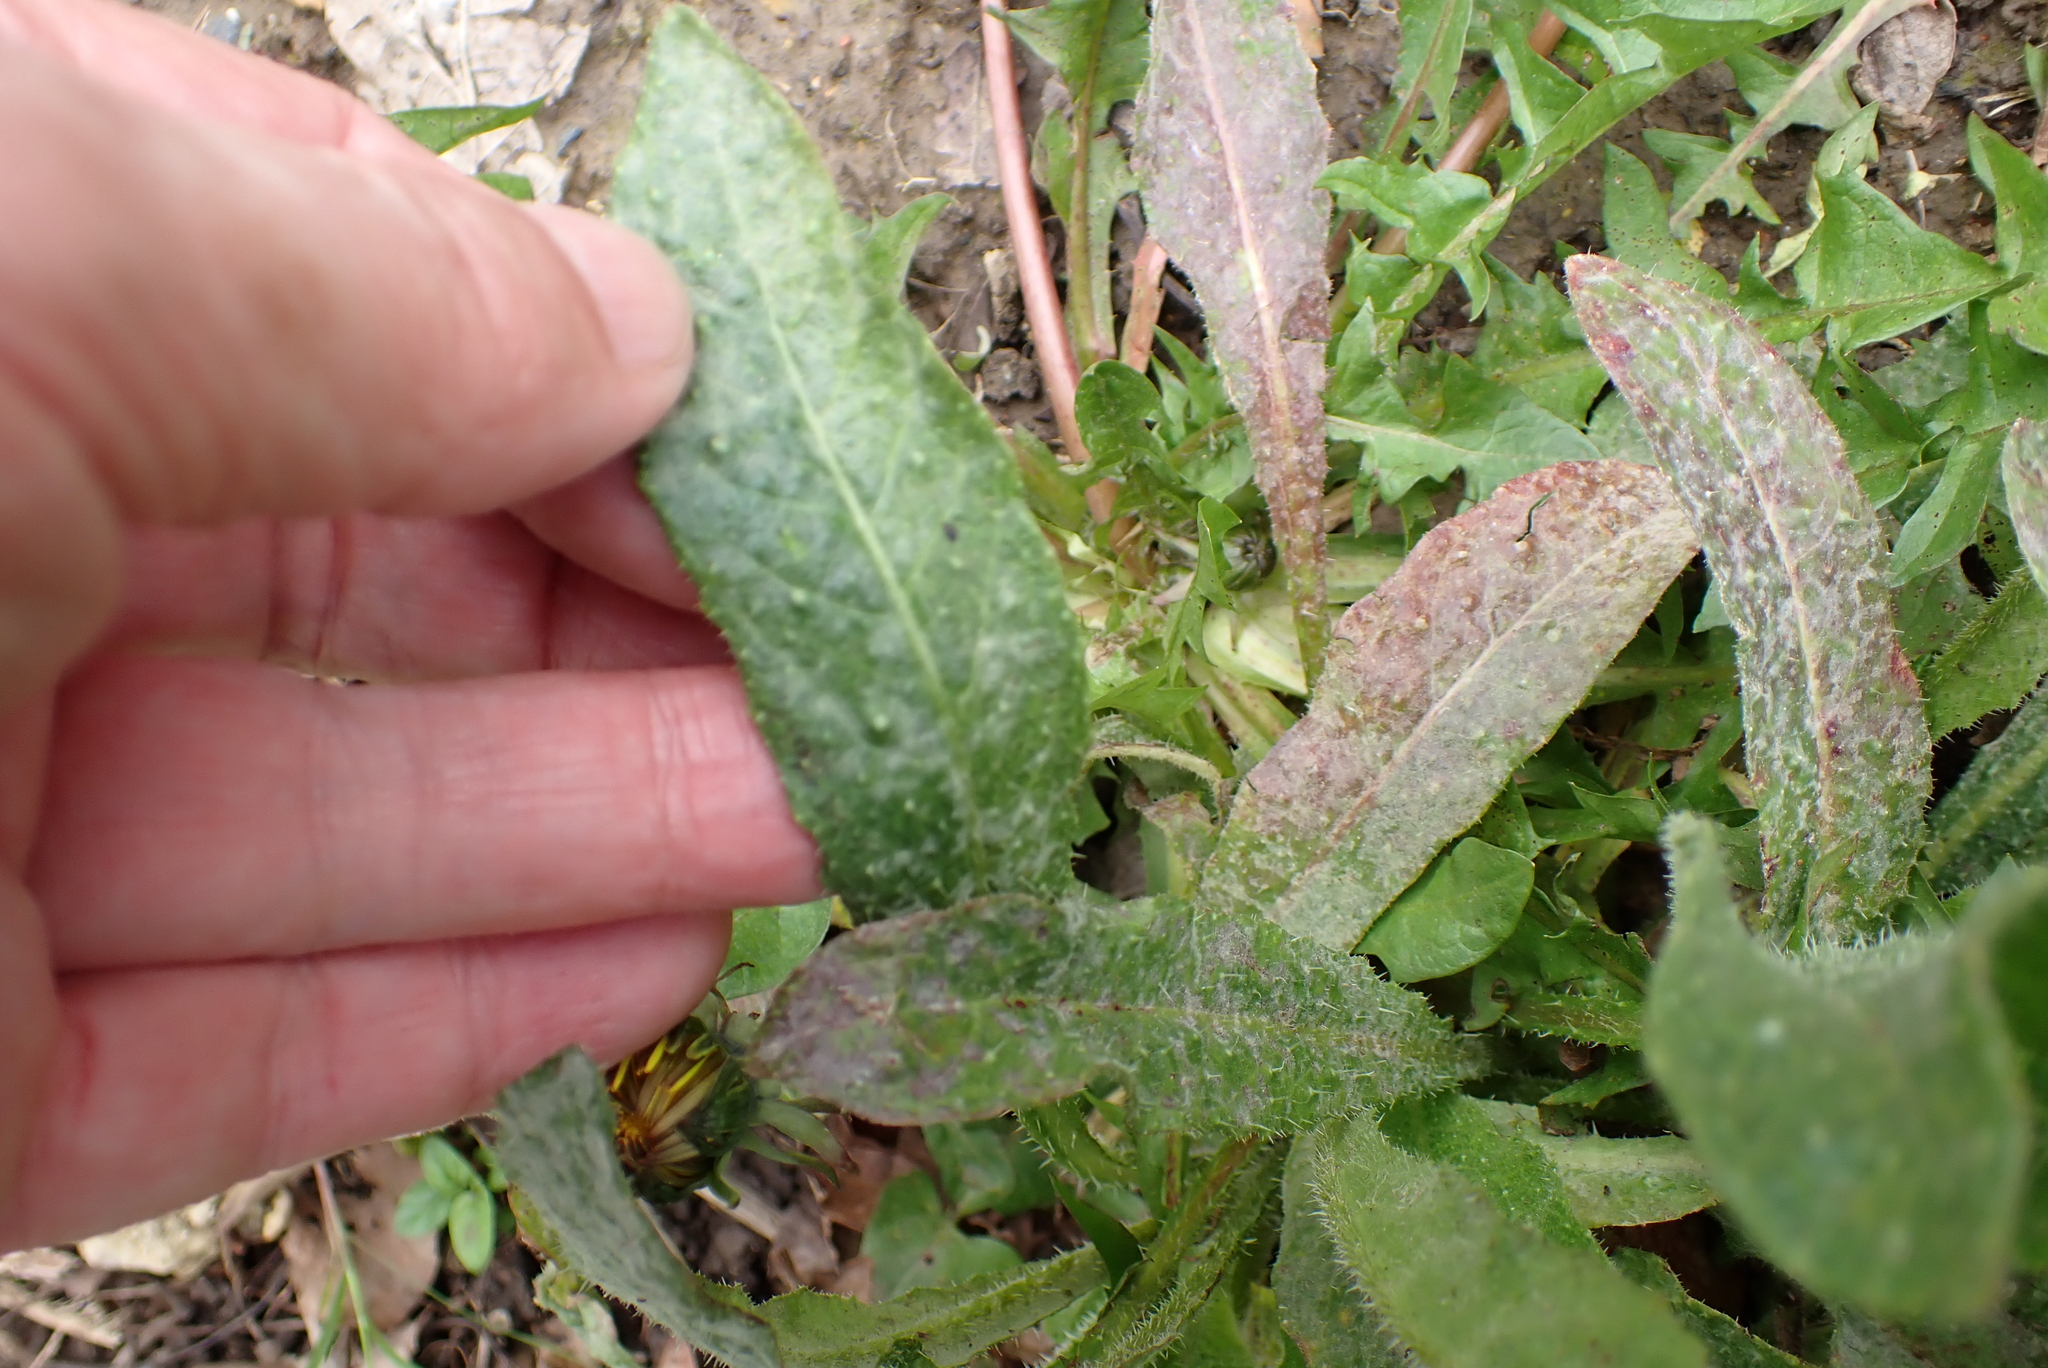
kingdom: Plantae
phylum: Tracheophyta
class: Magnoliopsida
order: Asterales
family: Asteraceae
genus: Helminthotheca
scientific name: Helminthotheca echioides
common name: Ox-tongue
